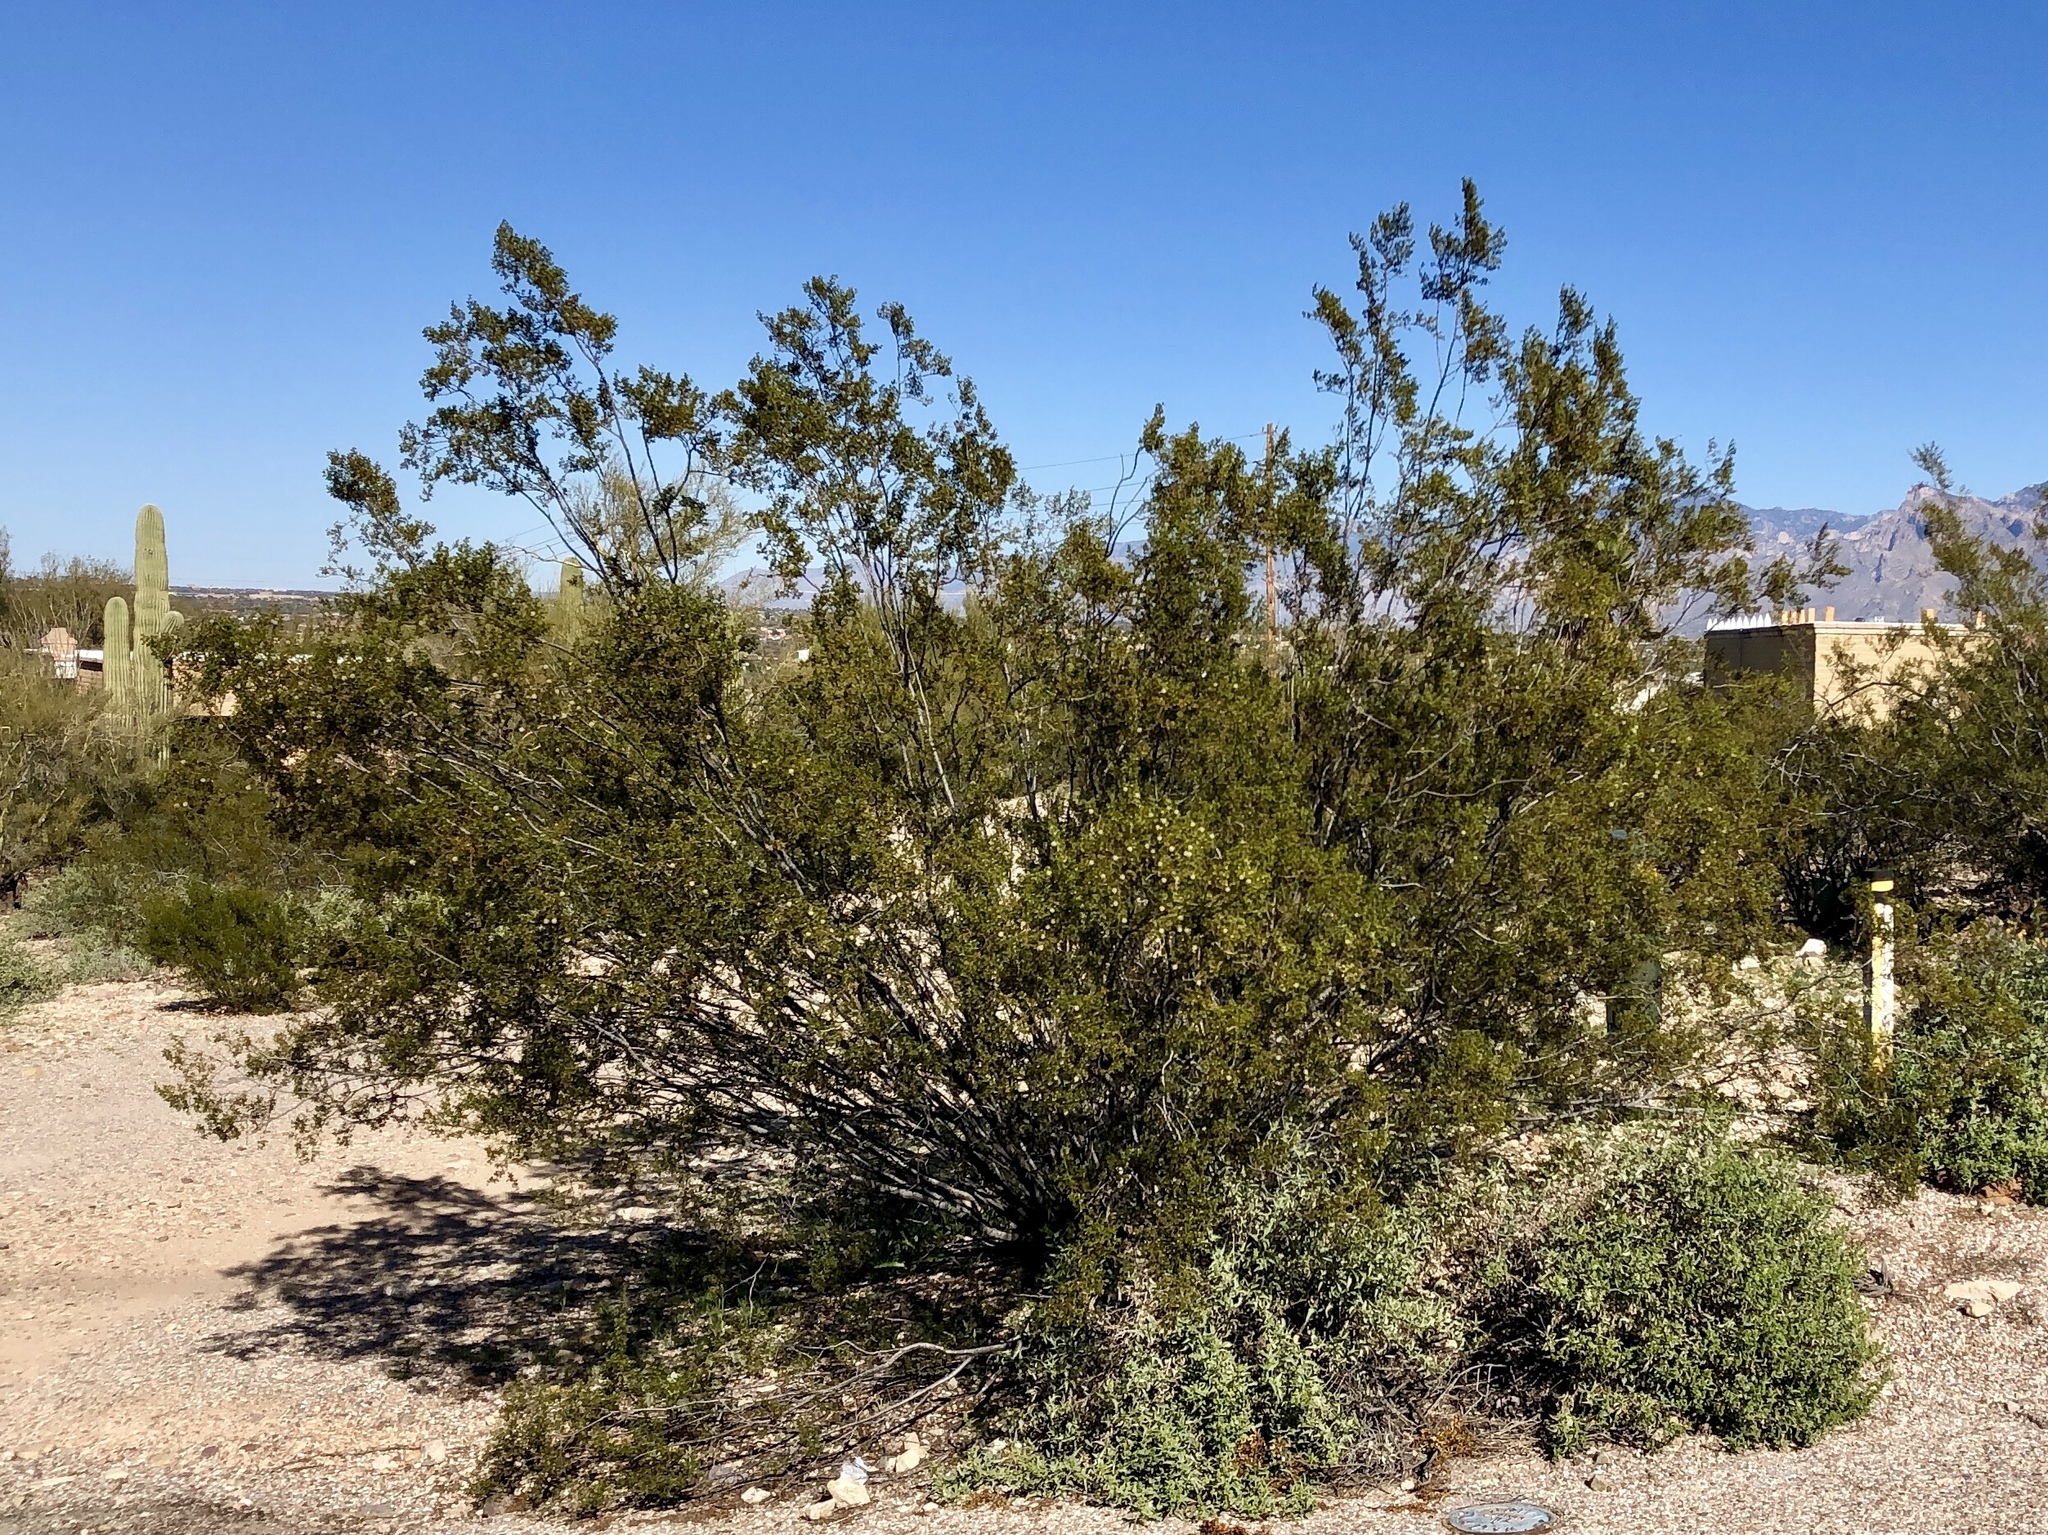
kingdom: Plantae
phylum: Tracheophyta
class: Magnoliopsida
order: Zygophyllales
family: Zygophyllaceae
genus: Larrea
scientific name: Larrea tridentata
